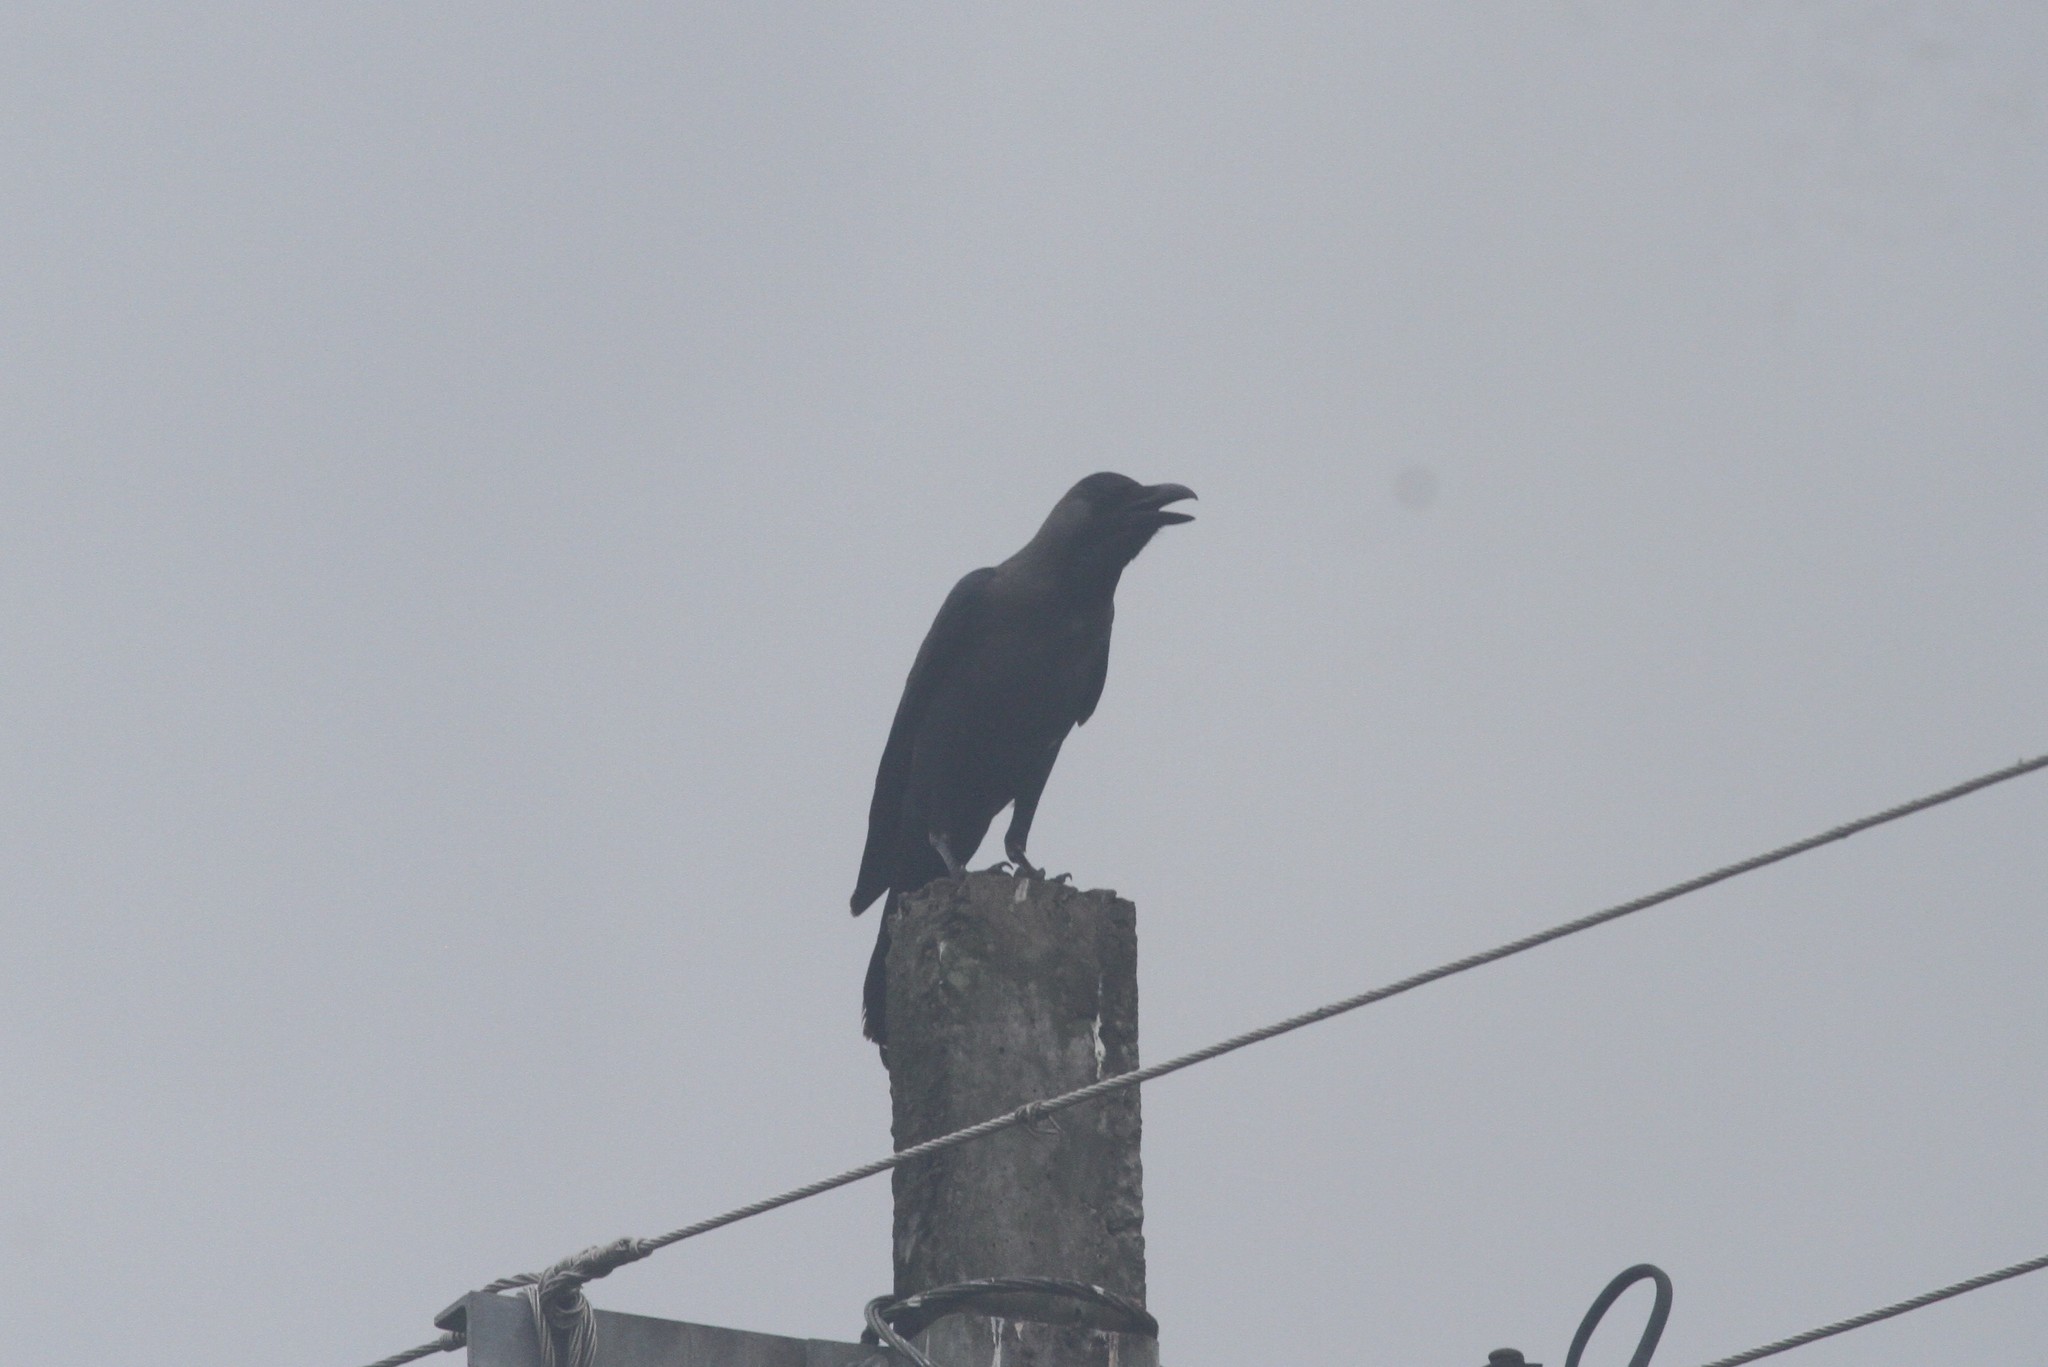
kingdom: Animalia
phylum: Chordata
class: Aves
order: Passeriformes
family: Corvidae
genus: Corvus
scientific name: Corvus splendens
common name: House crow
